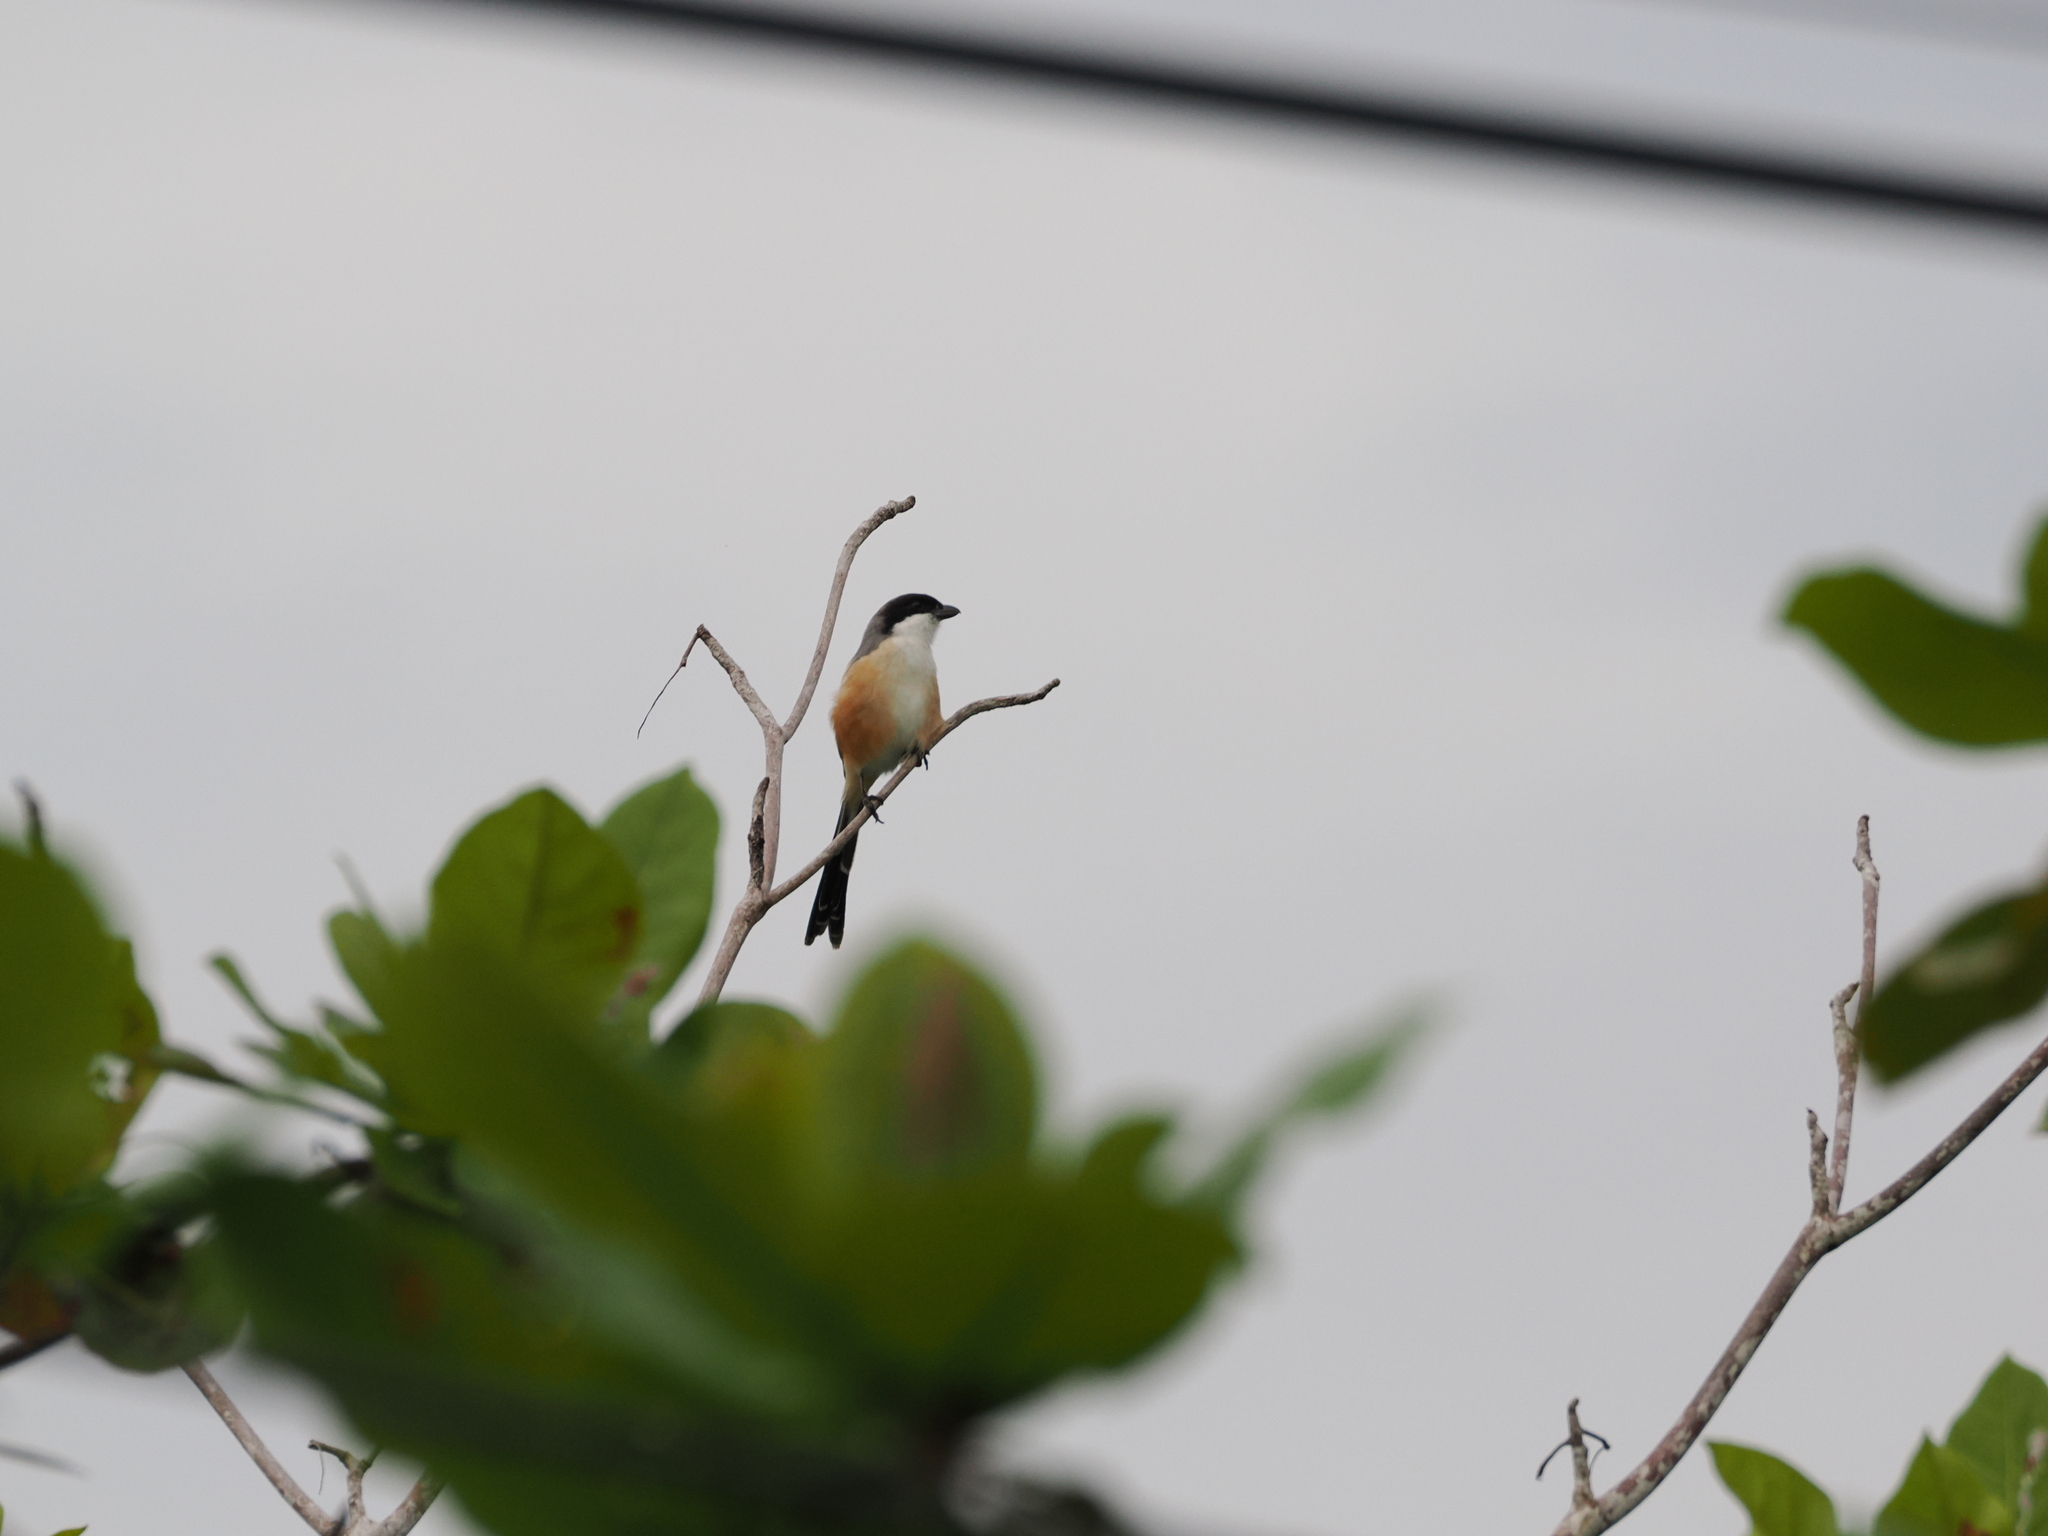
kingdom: Animalia
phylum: Chordata
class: Aves
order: Passeriformes
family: Laniidae
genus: Lanius
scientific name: Lanius schach
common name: Long-tailed shrike
